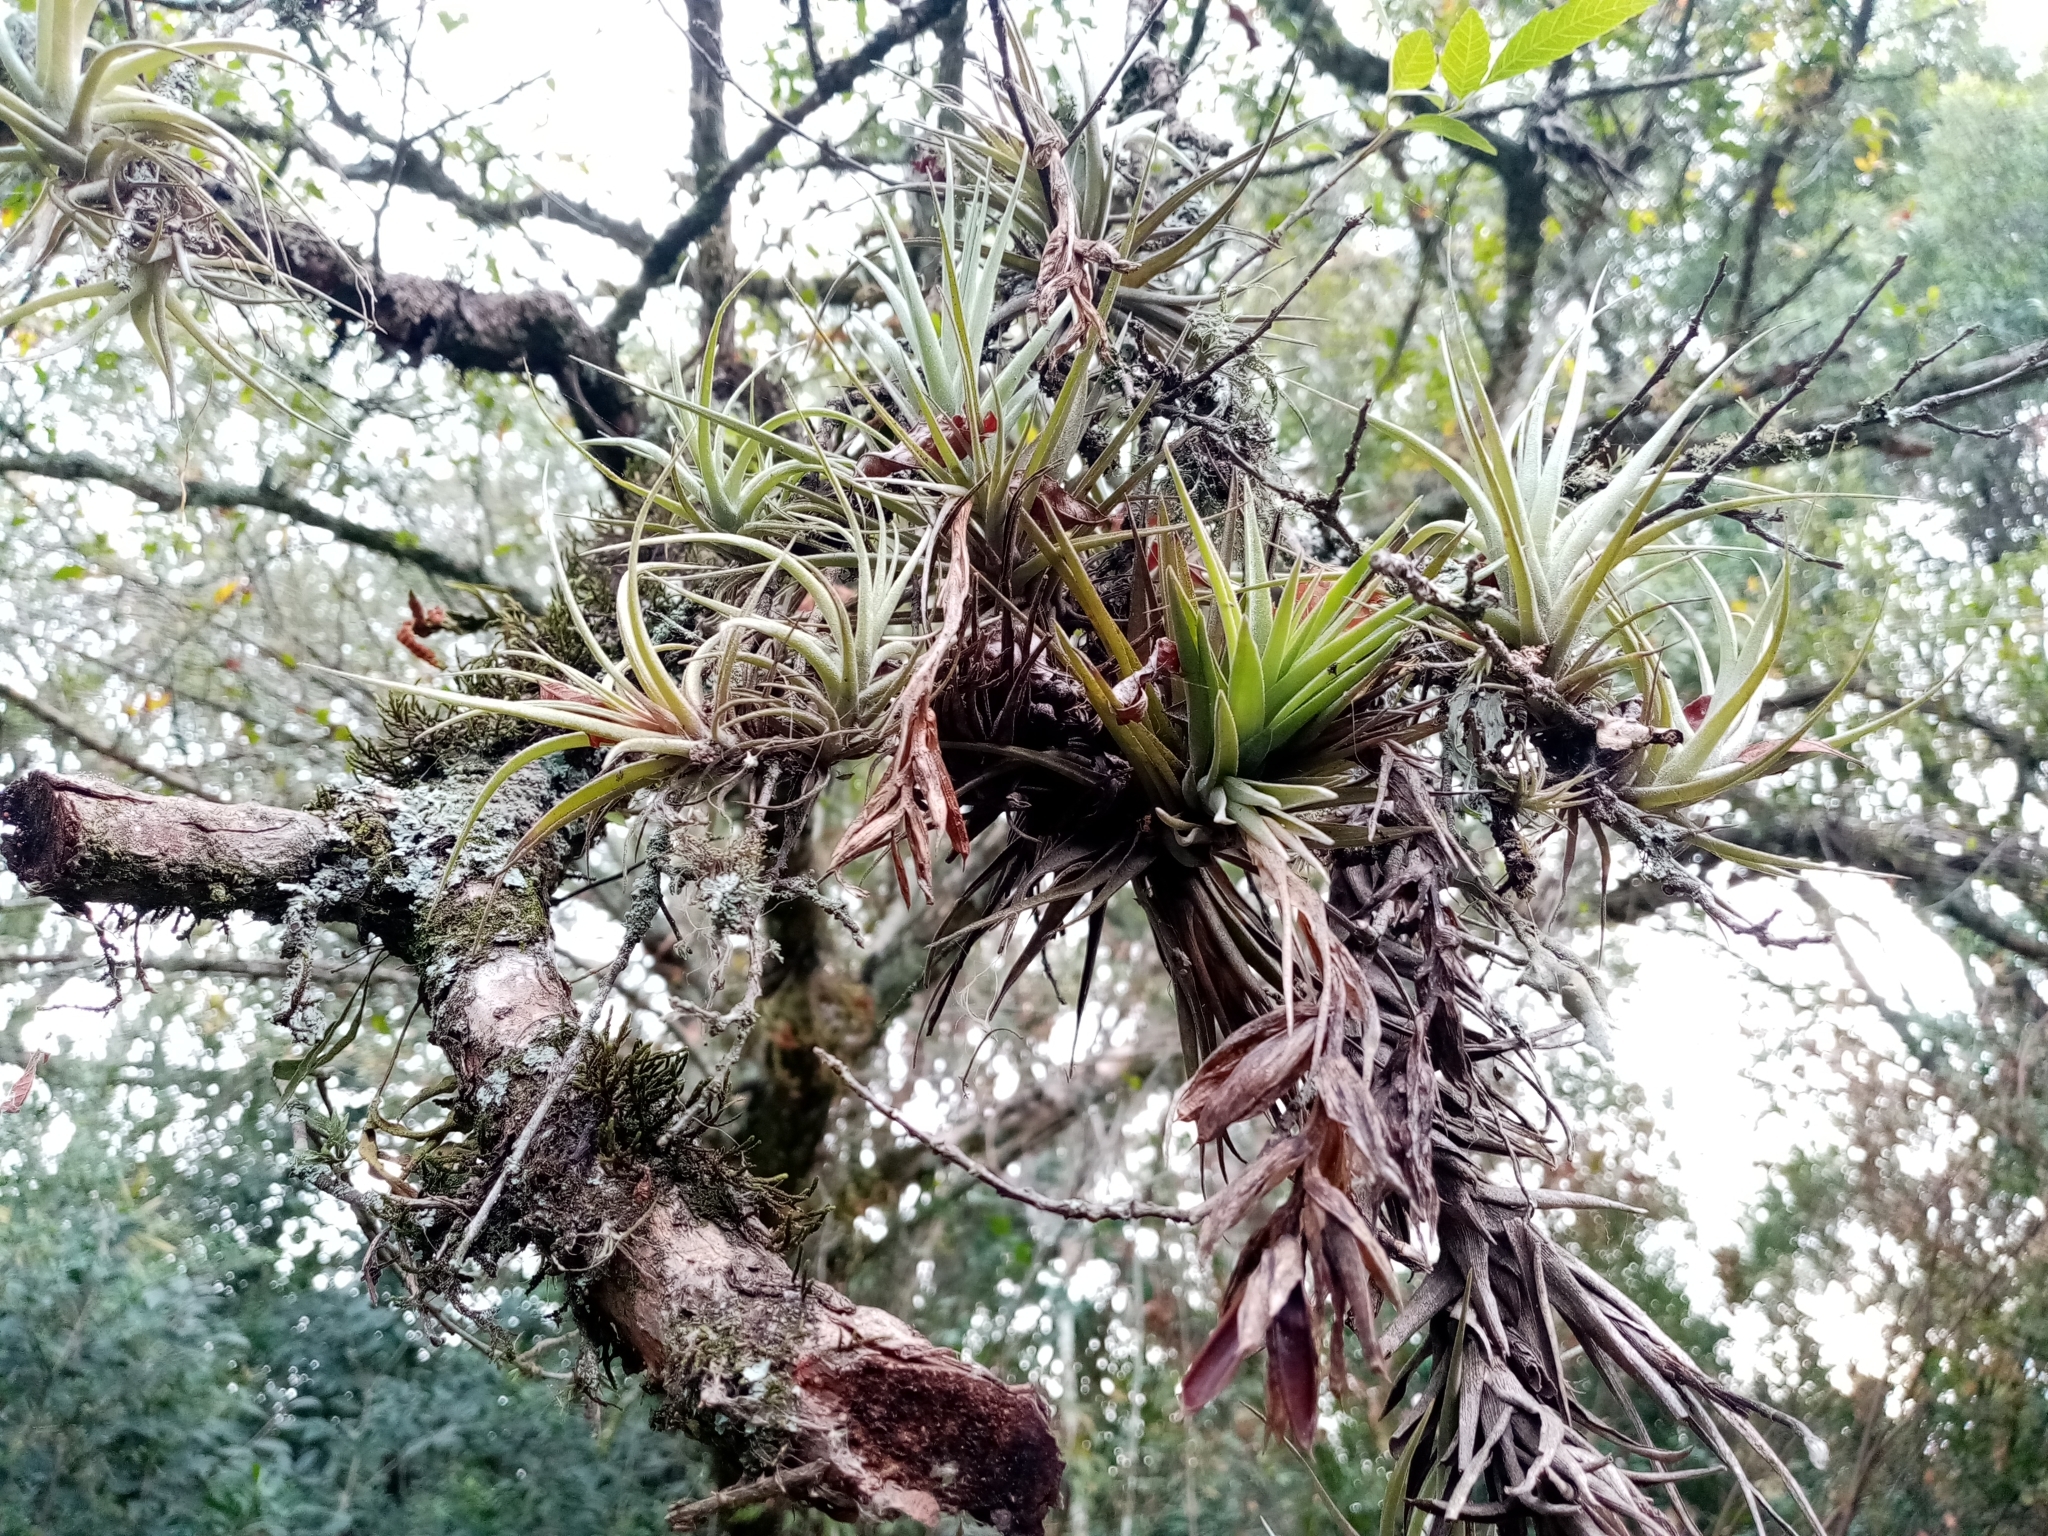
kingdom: Plantae
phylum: Tracheophyta
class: Liliopsida
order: Poales
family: Bromeliaceae
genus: Tillandsia
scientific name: Tillandsia aeranthos
